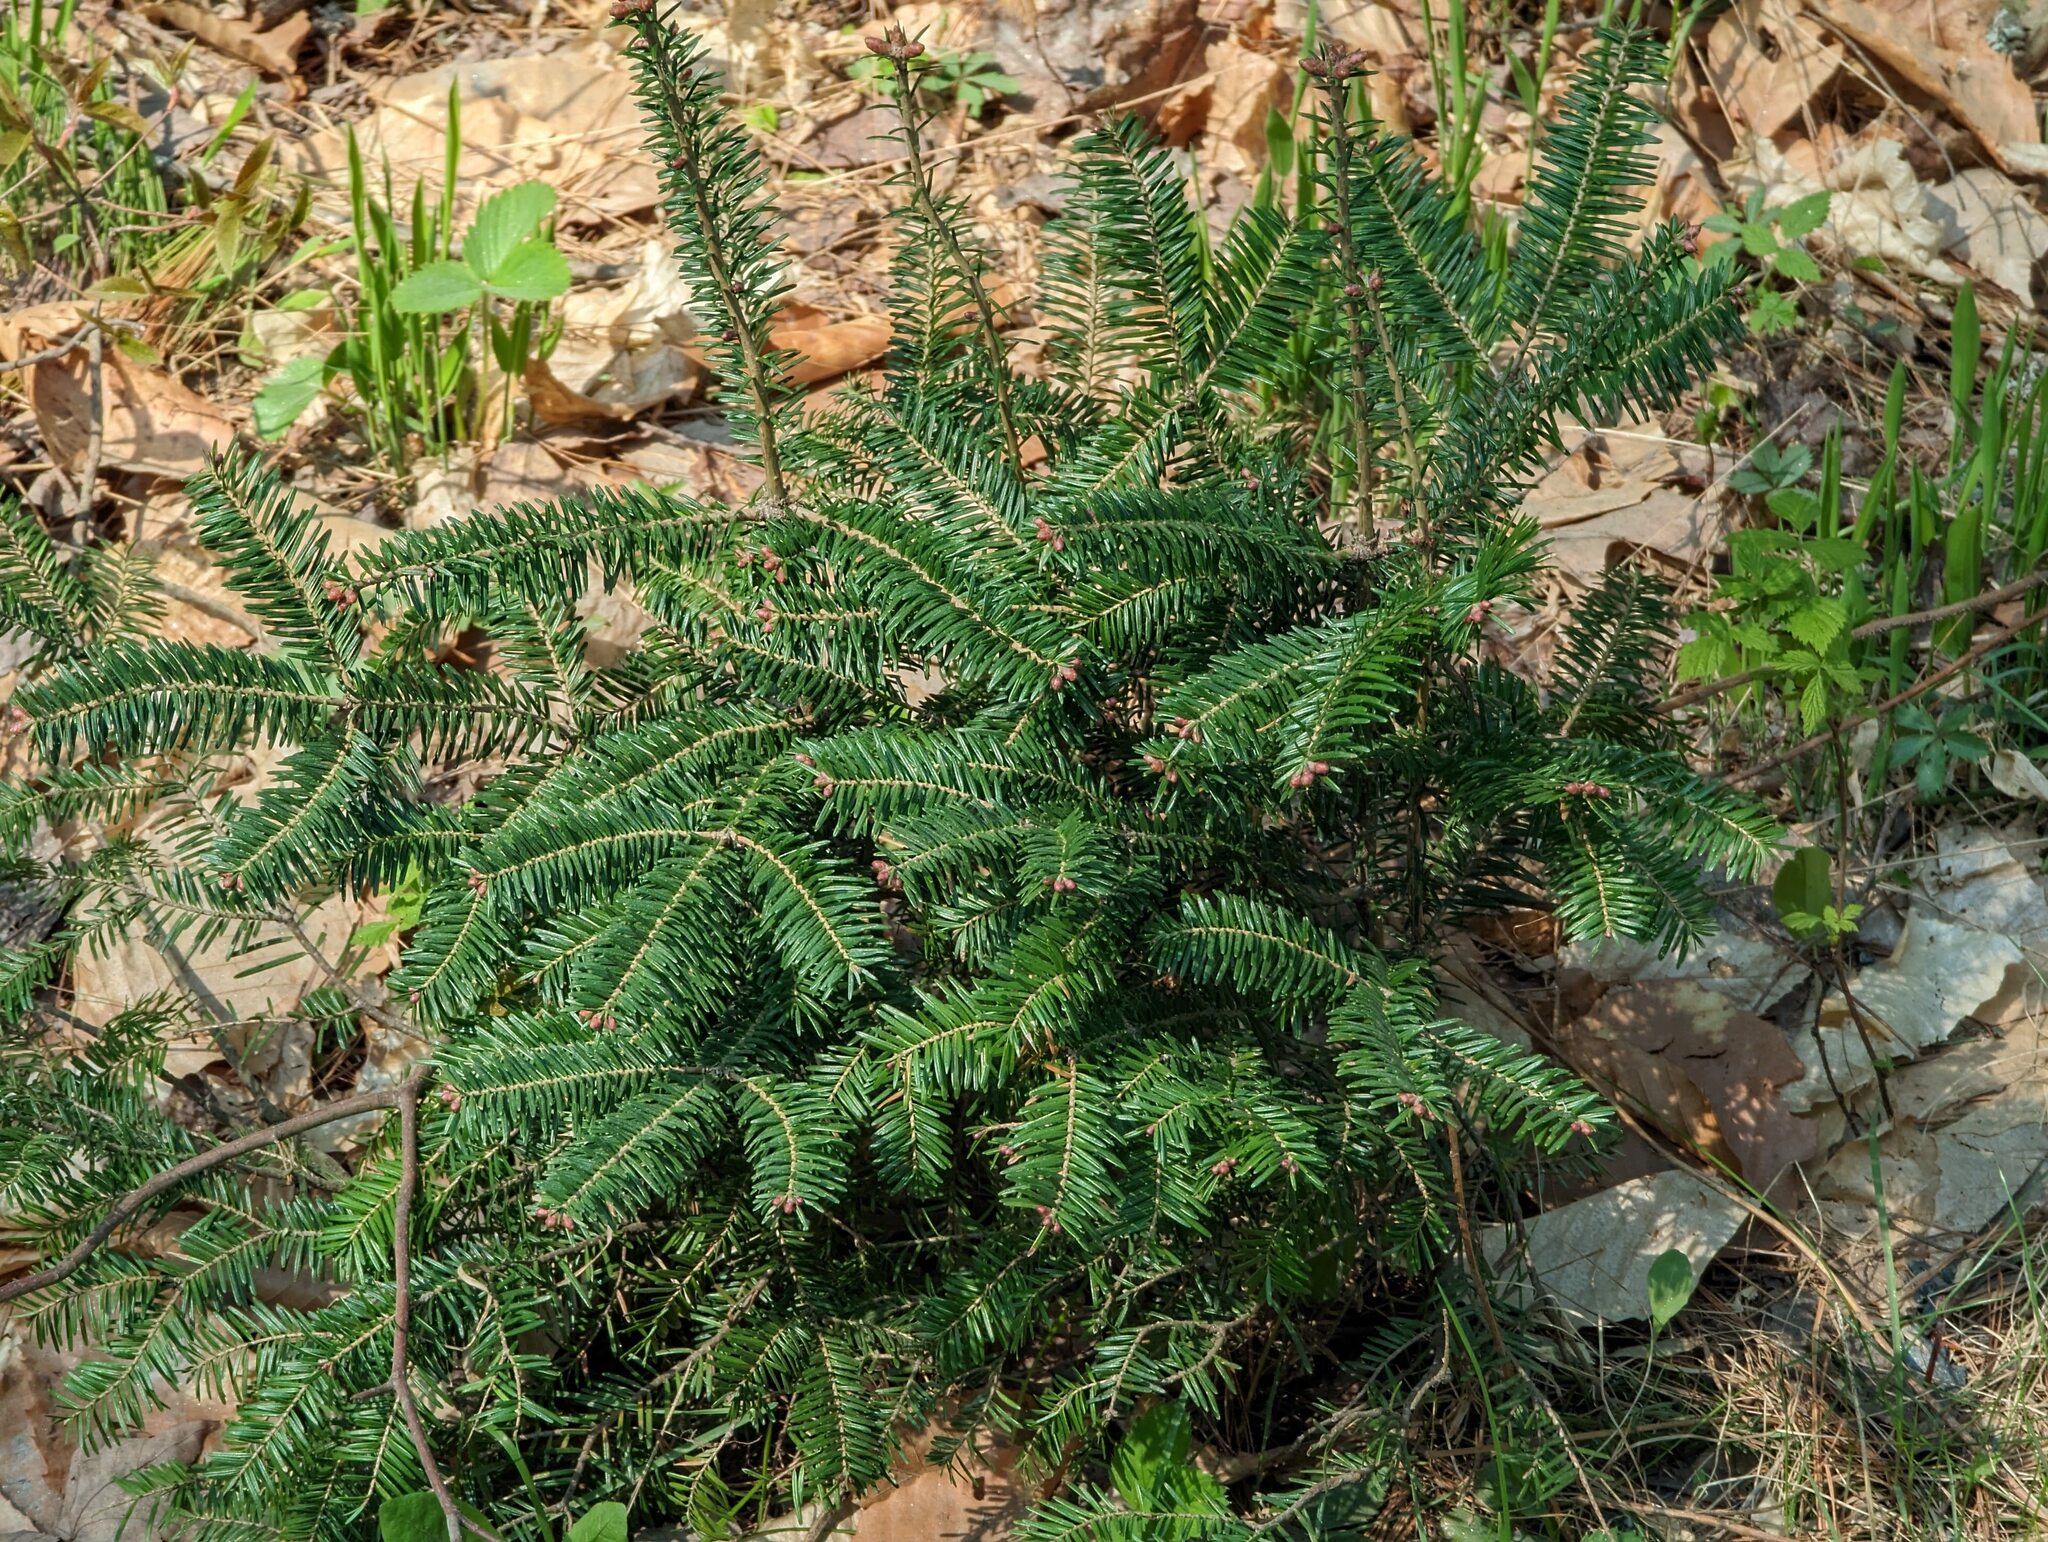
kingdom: Plantae
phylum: Tracheophyta
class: Pinopsida
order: Pinales
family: Pinaceae
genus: Abies
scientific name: Abies balsamea
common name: Balsam fir
